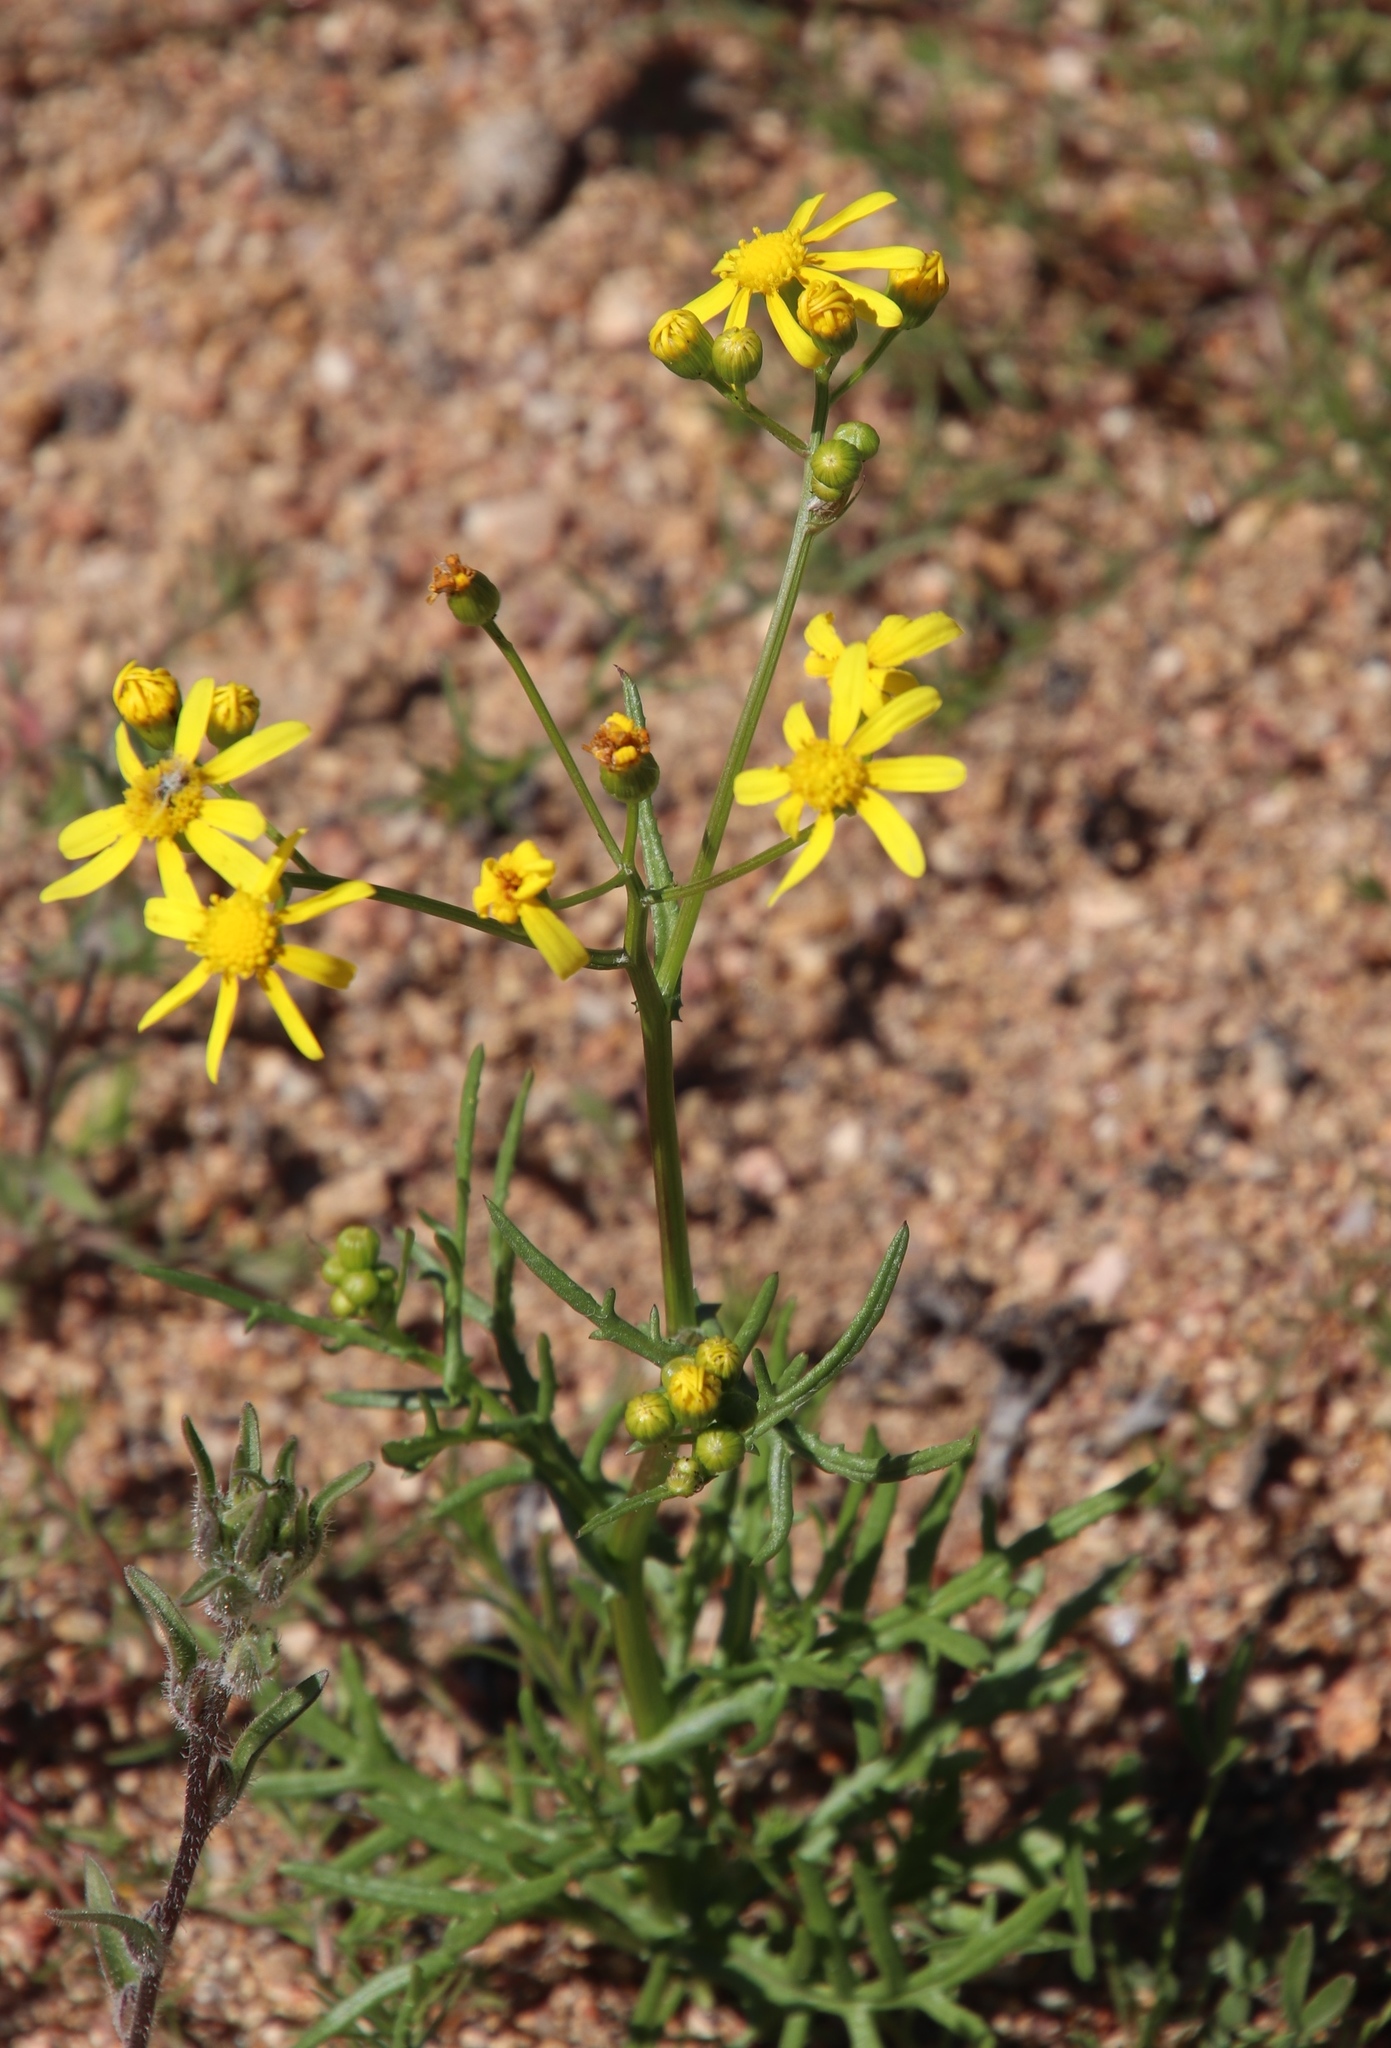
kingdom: Plantae
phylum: Tracheophyta
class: Magnoliopsida
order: Asterales
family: Asteraceae
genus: Senecio
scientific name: Senecio abruptus
